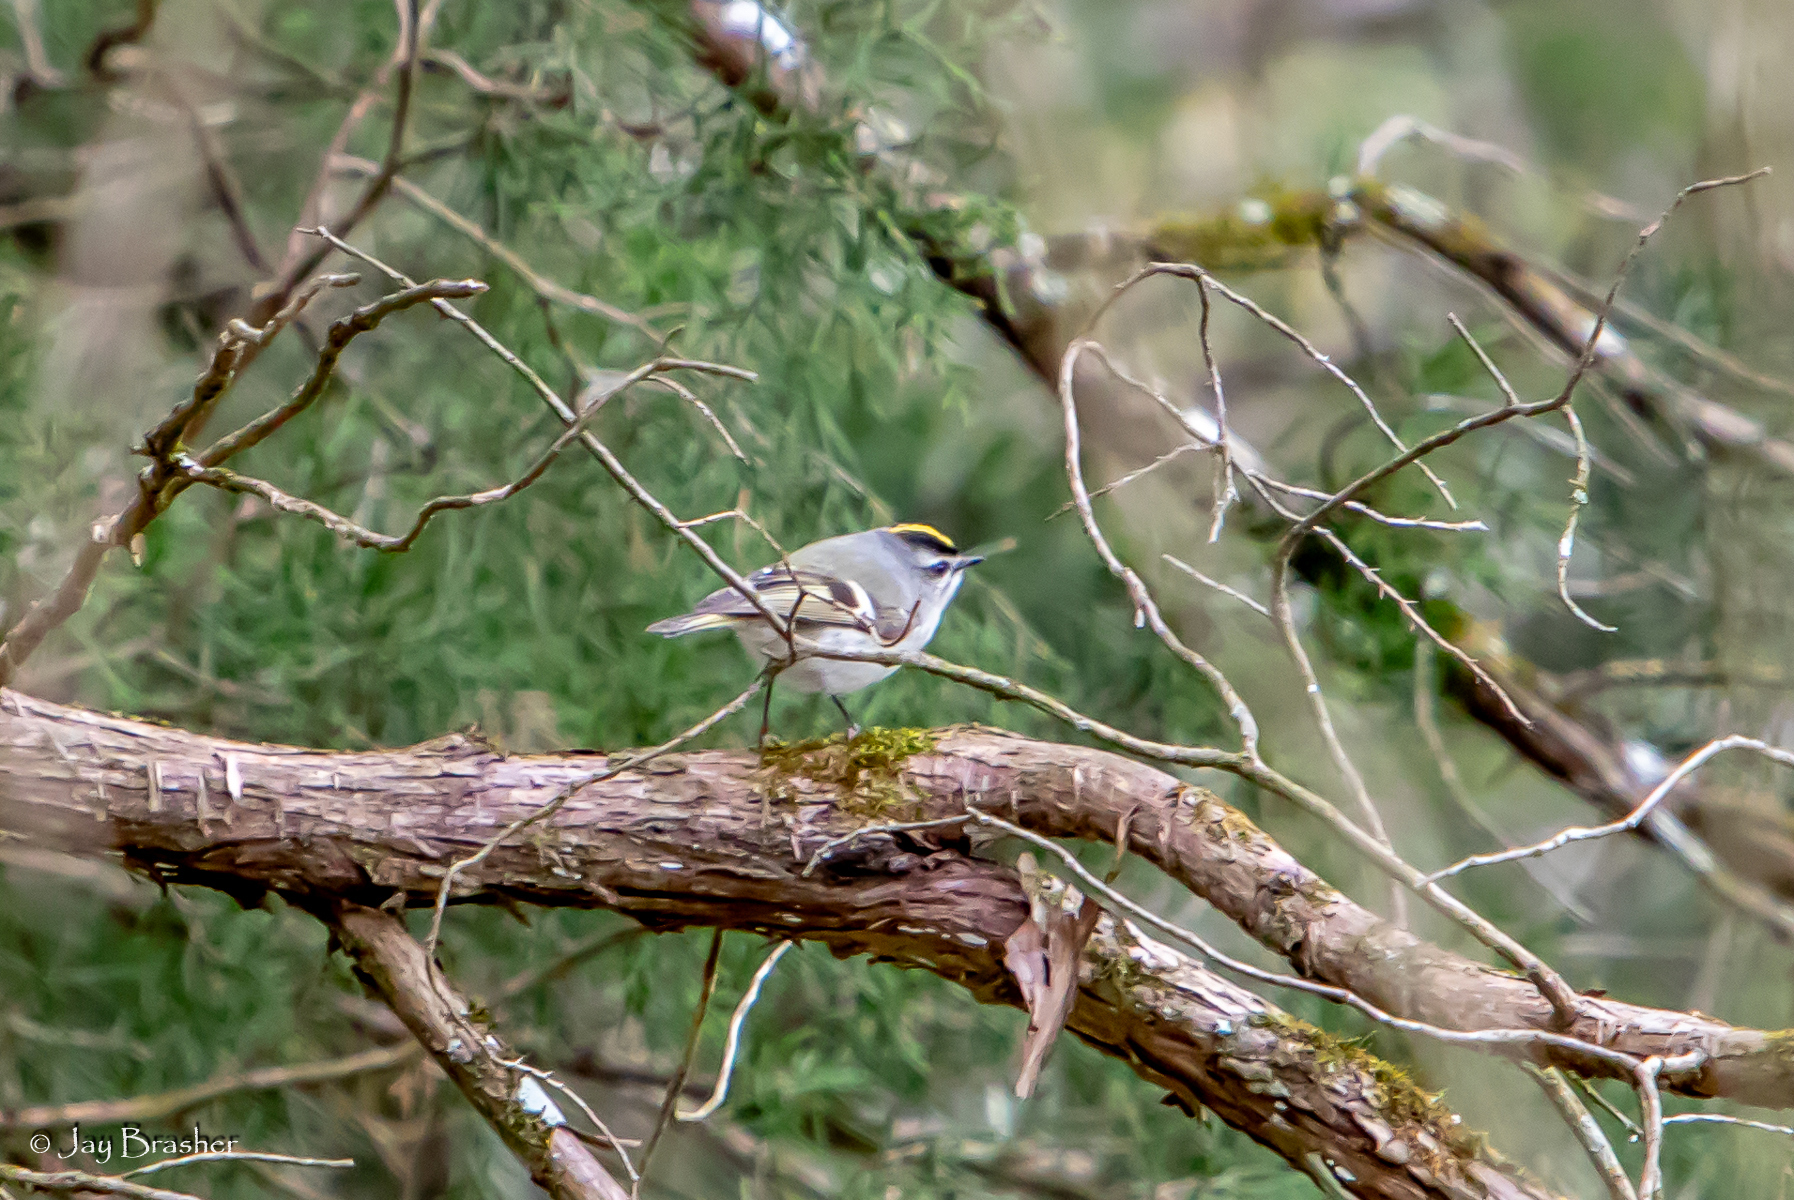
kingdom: Animalia
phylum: Chordata
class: Aves
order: Passeriformes
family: Regulidae
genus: Regulus
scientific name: Regulus satrapa
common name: Golden-crowned kinglet
